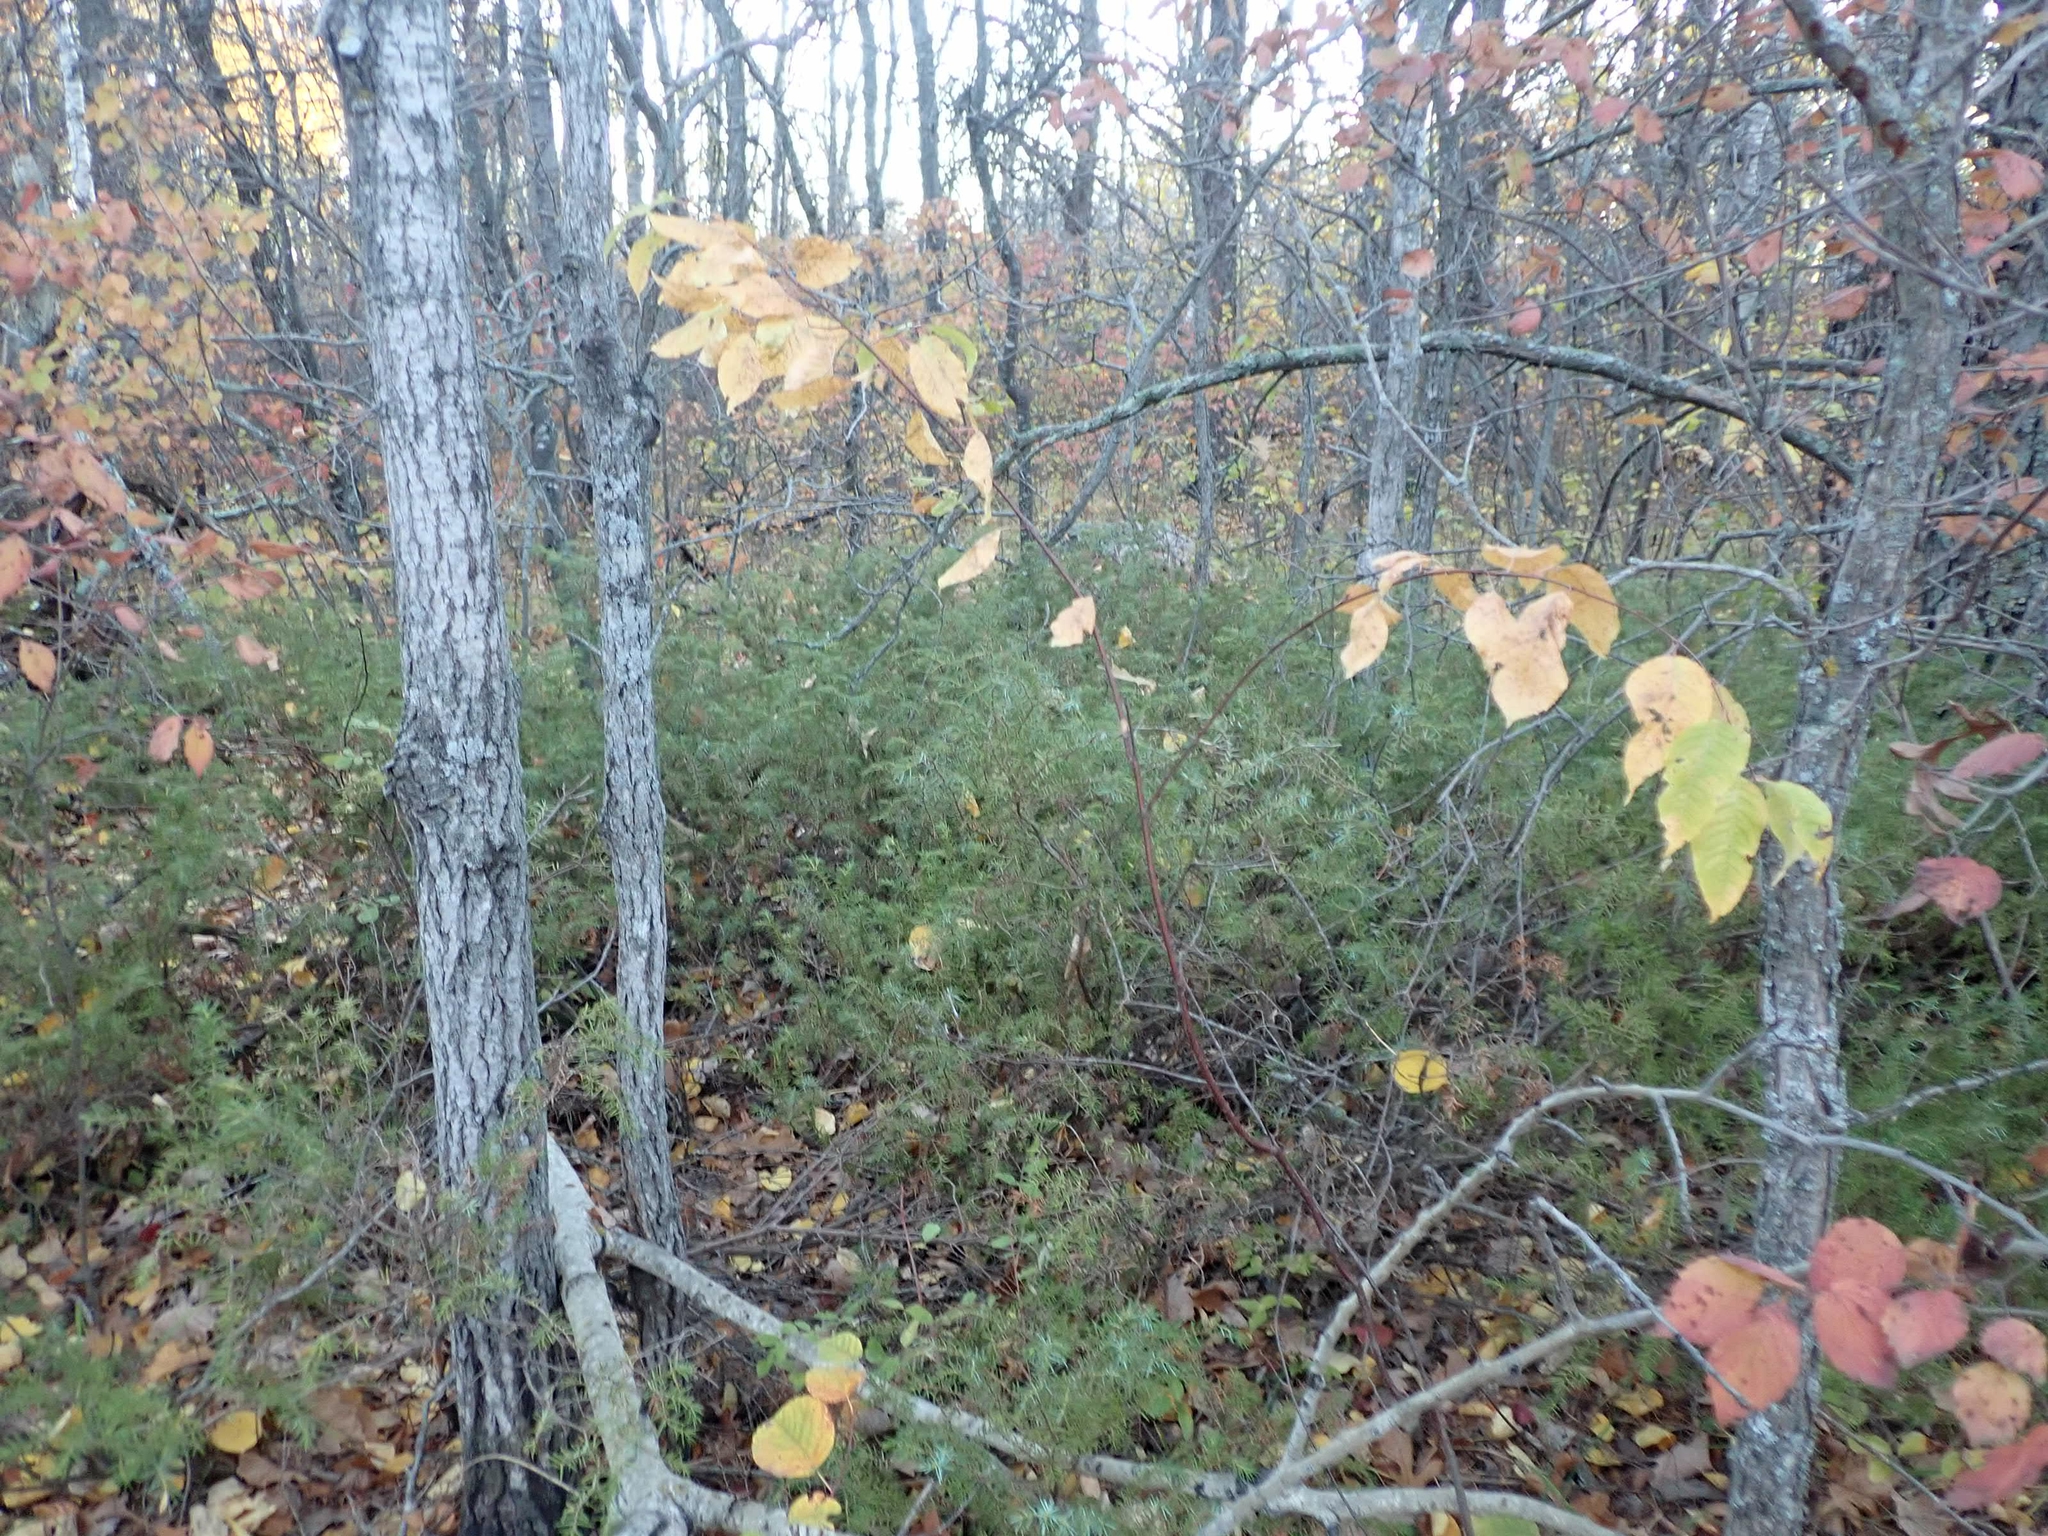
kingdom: Plantae
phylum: Tracheophyta
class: Pinopsida
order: Pinales
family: Cupressaceae
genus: Juniperus
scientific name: Juniperus communis
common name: Common juniper
